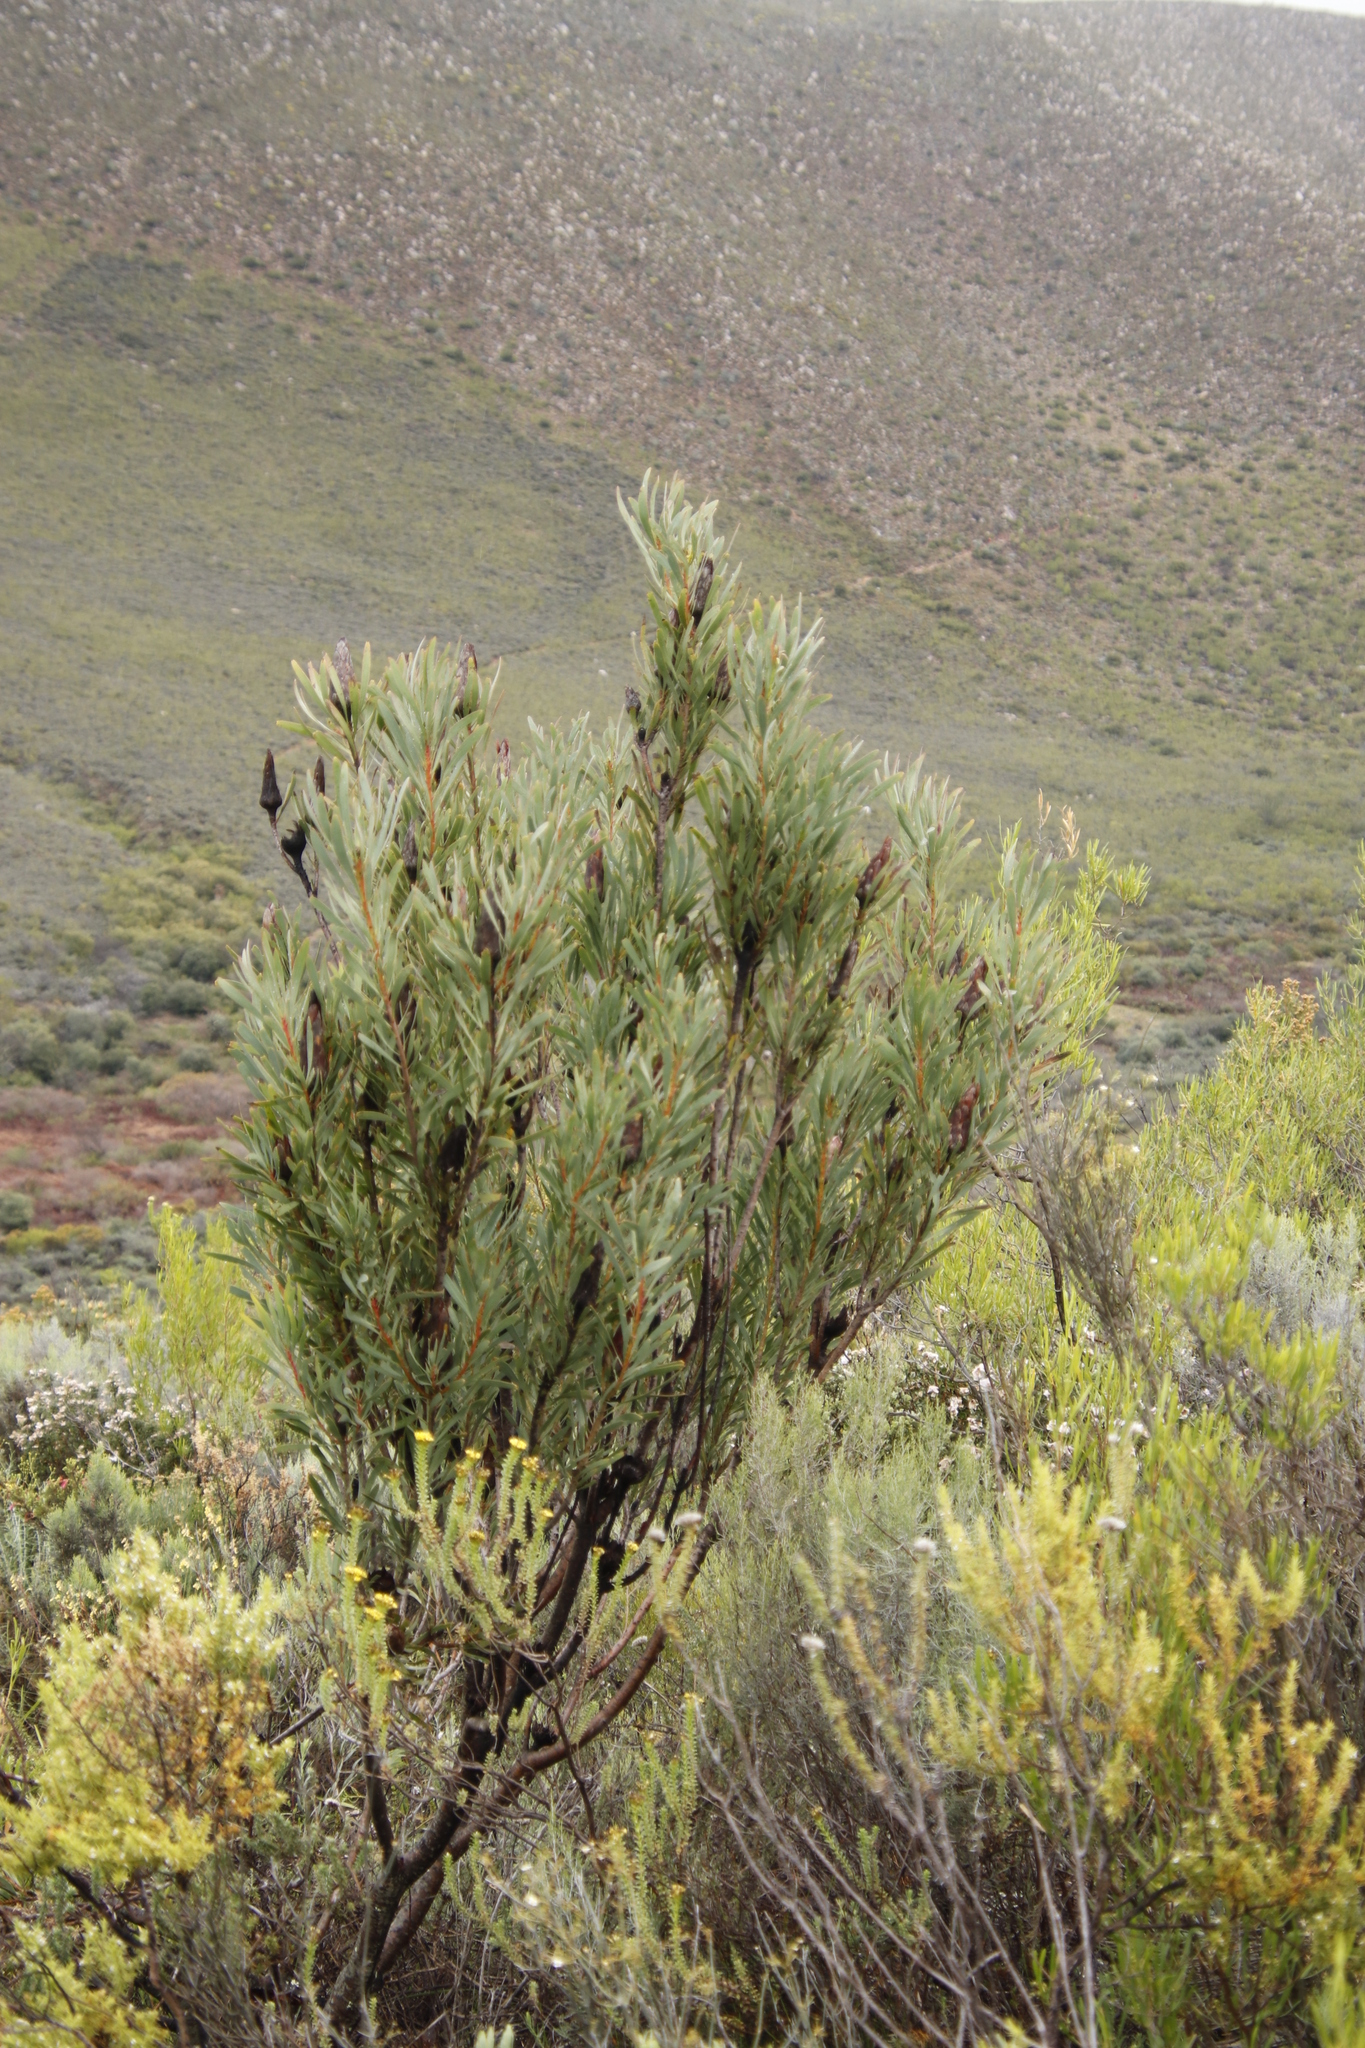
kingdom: Plantae
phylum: Tracheophyta
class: Magnoliopsida
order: Proteales
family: Proteaceae
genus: Protea
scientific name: Protea repens
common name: Sugarbush
